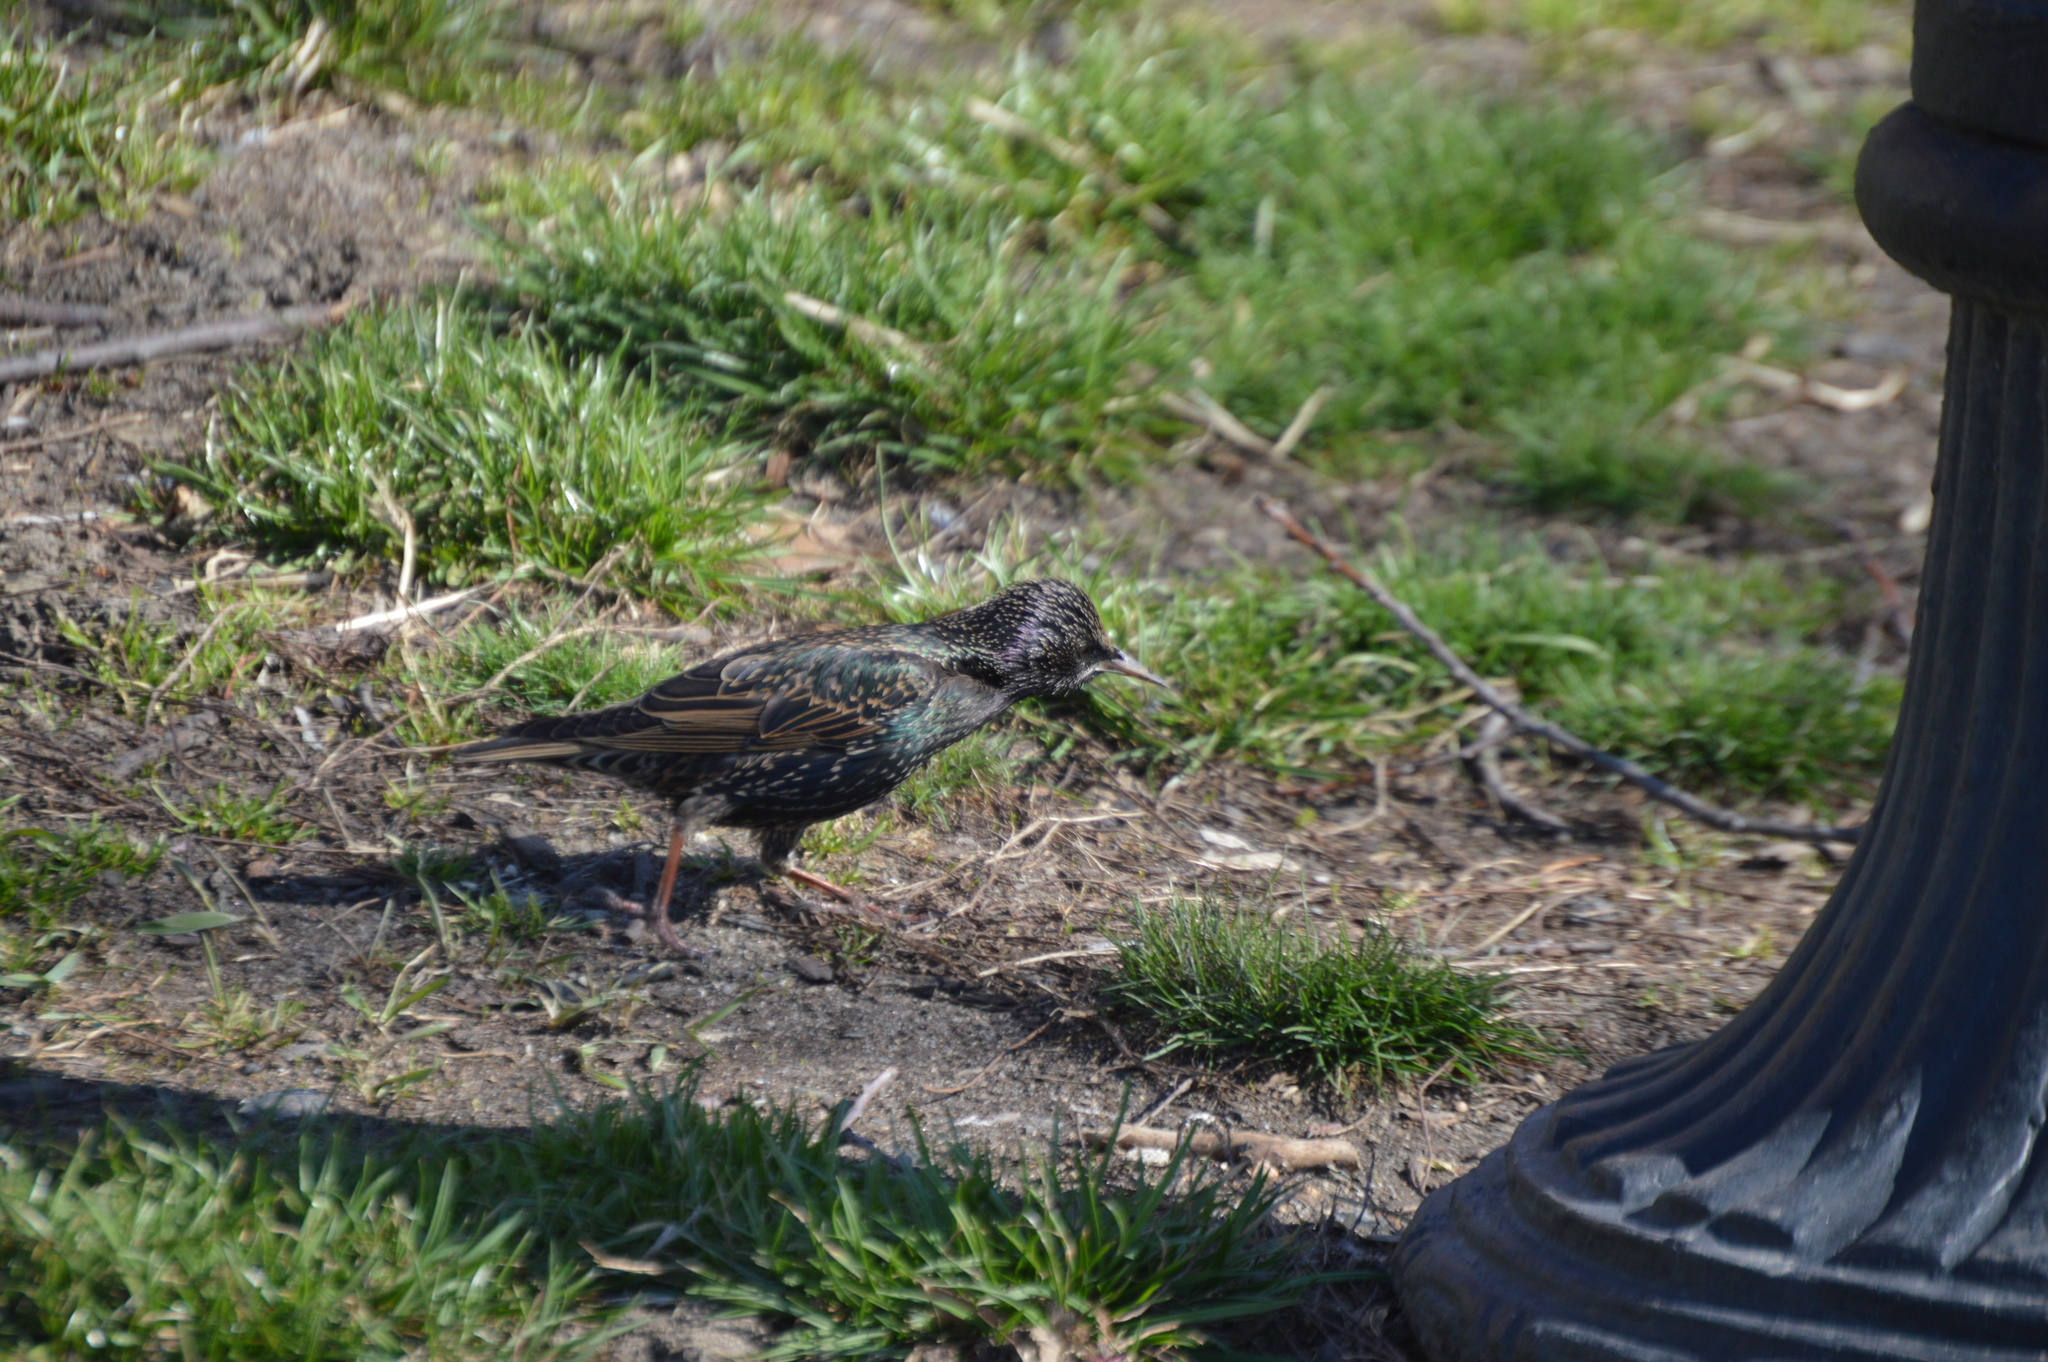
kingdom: Animalia
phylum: Chordata
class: Aves
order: Passeriformes
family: Sturnidae
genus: Sturnus
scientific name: Sturnus vulgaris
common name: Common starling
